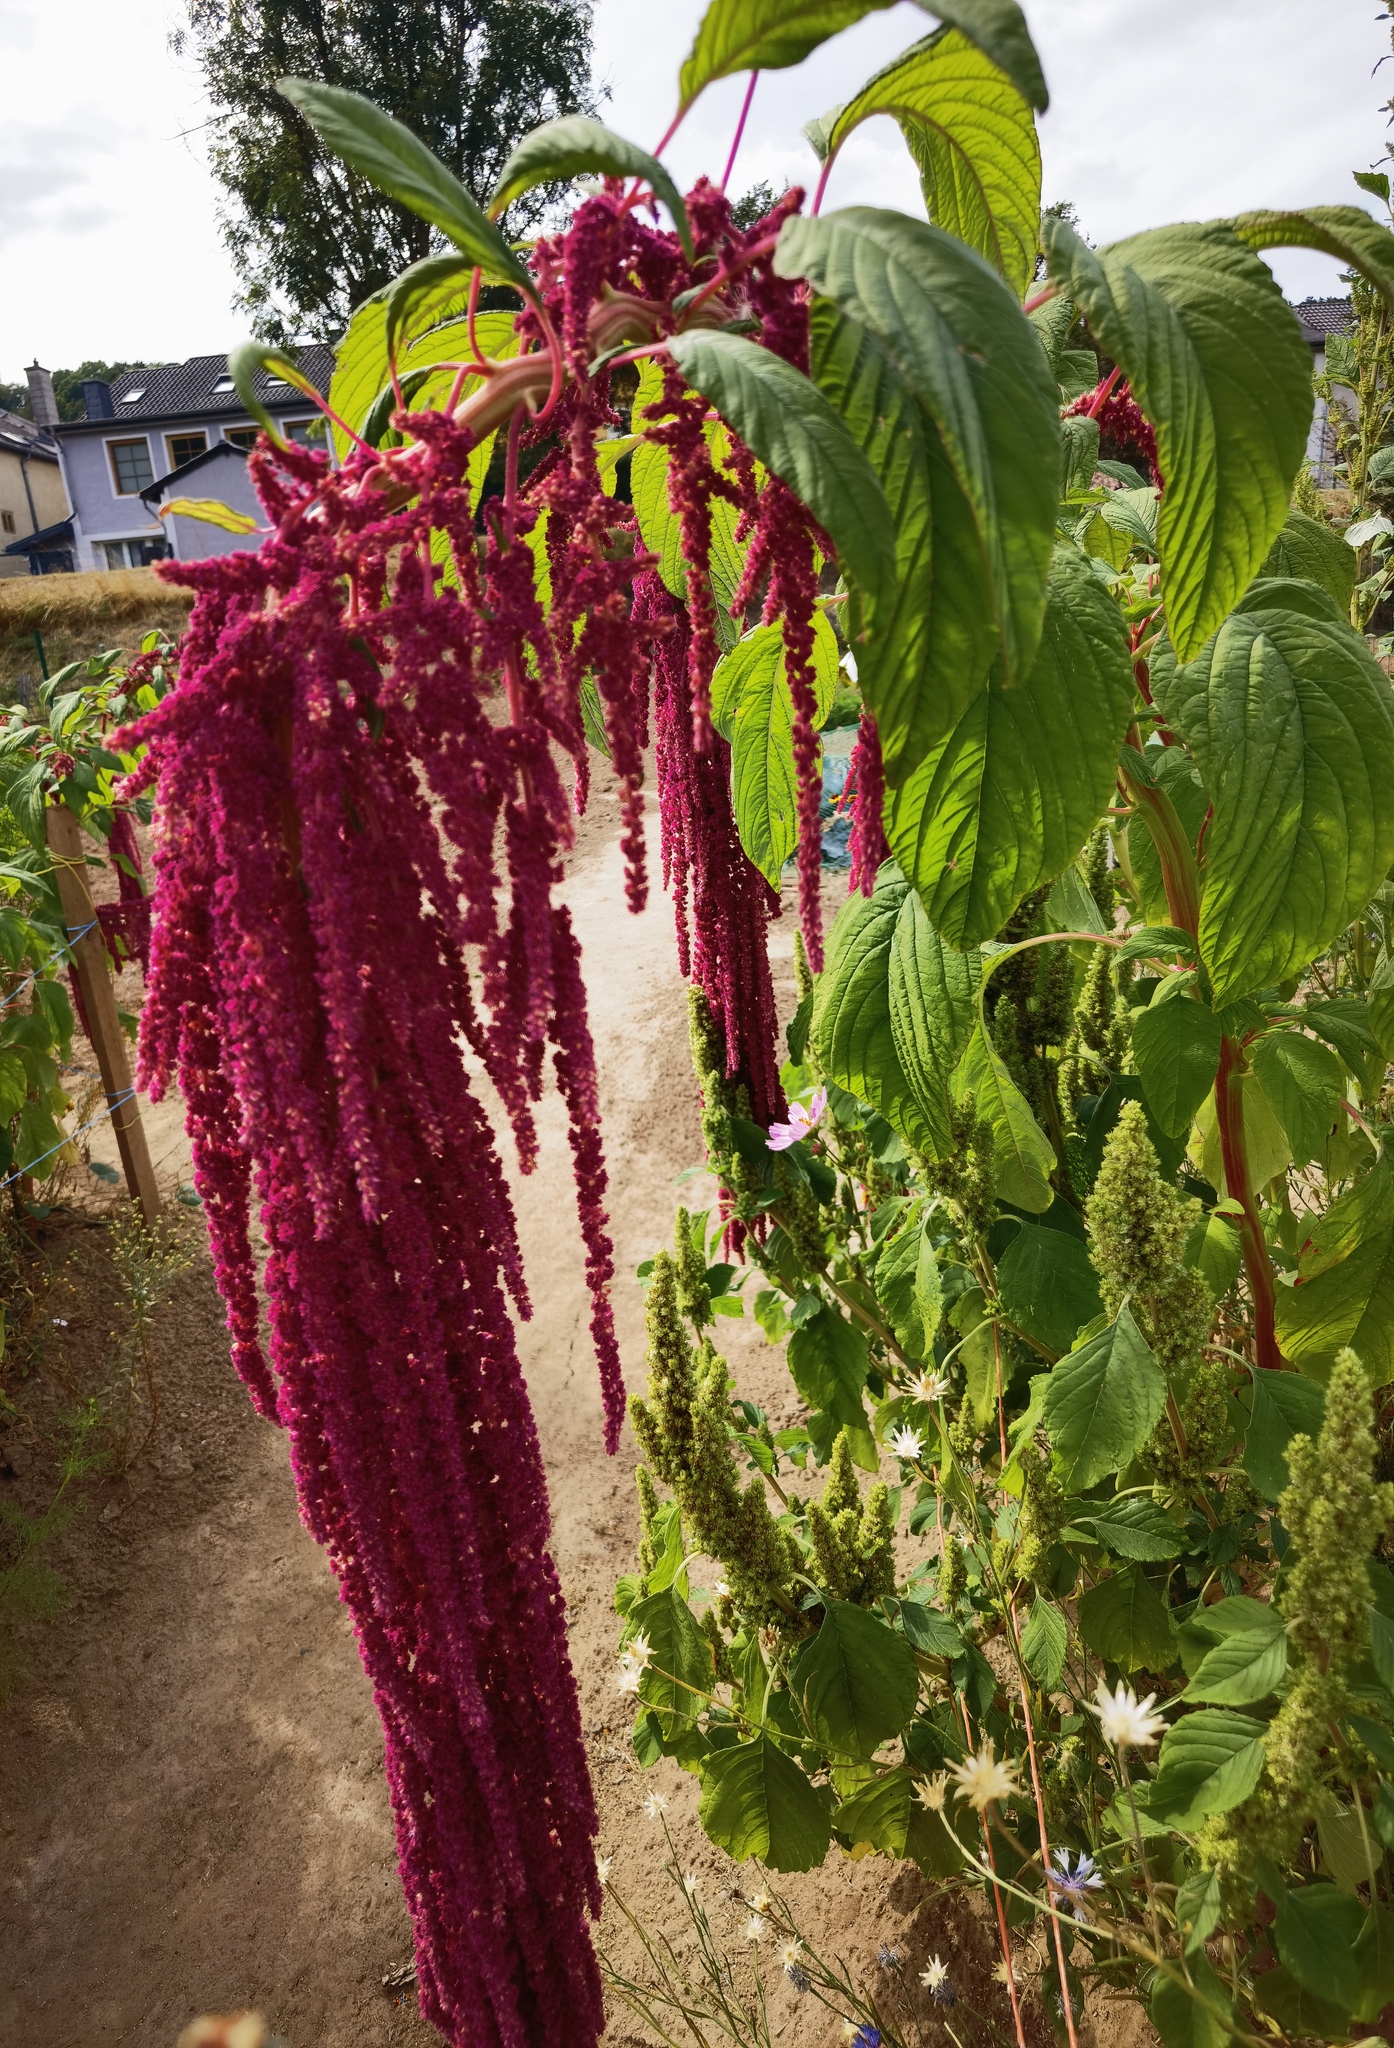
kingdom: Plantae
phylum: Tracheophyta
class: Magnoliopsida
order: Caryophyllales
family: Amaranthaceae
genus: Amaranthus
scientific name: Amaranthus caudatus
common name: Love-lies-bleeding
